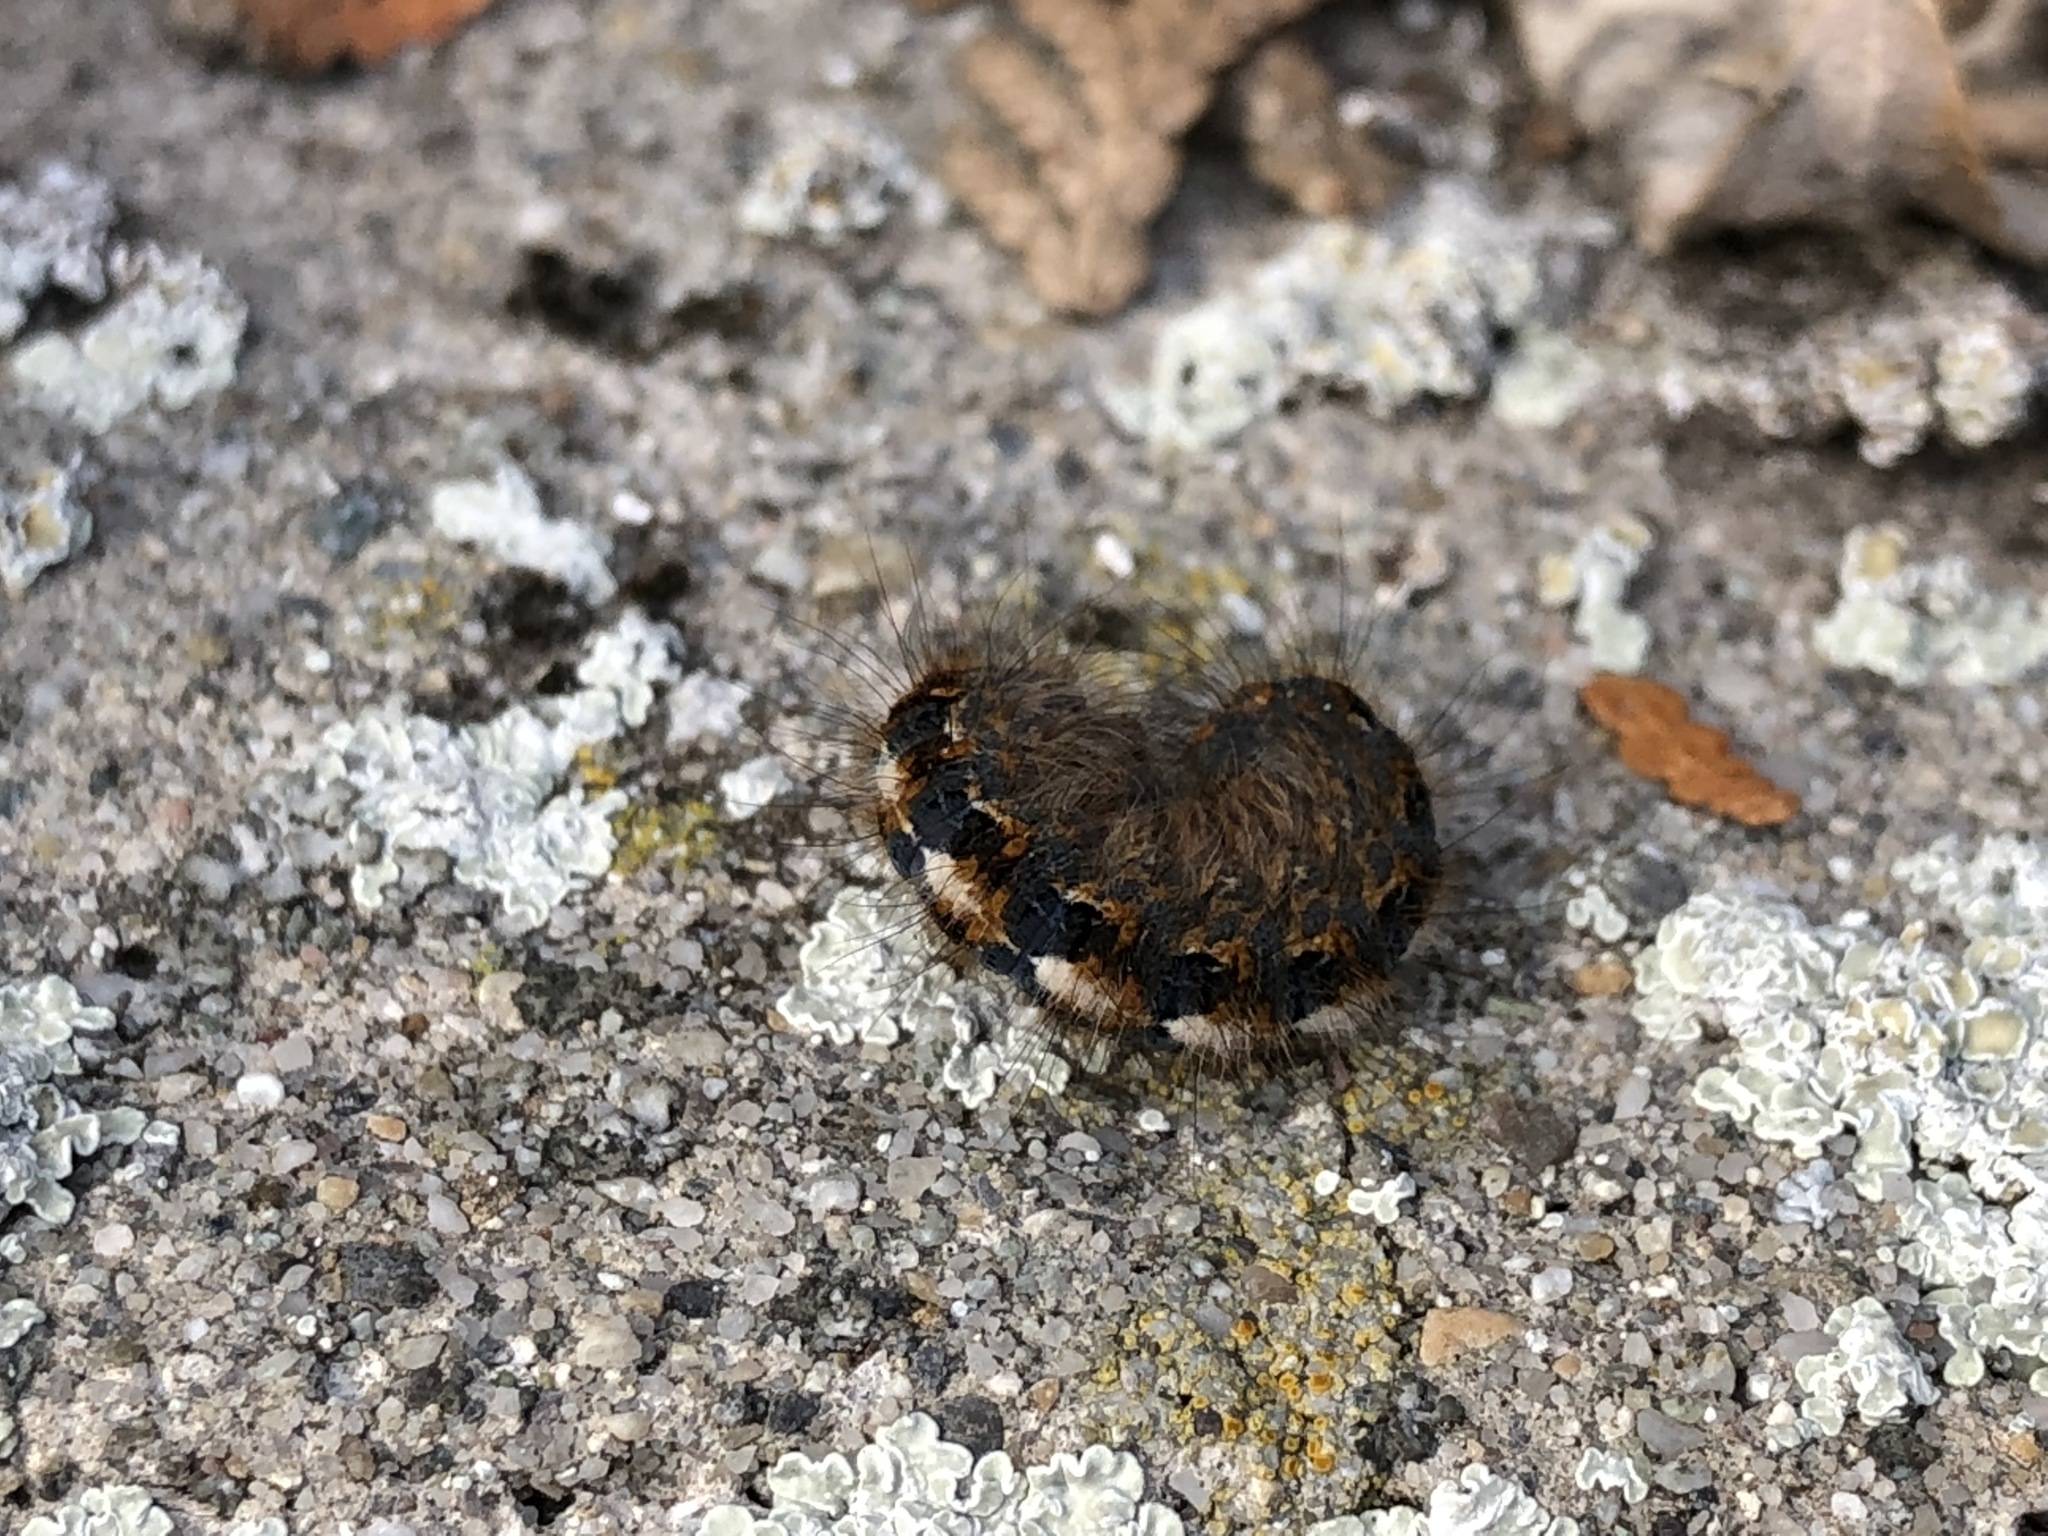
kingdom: Animalia
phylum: Arthropoda
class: Insecta
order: Lepidoptera
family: Lasiocampidae
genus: Lasiocampa
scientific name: Lasiocampa quercus
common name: Oak eggar
